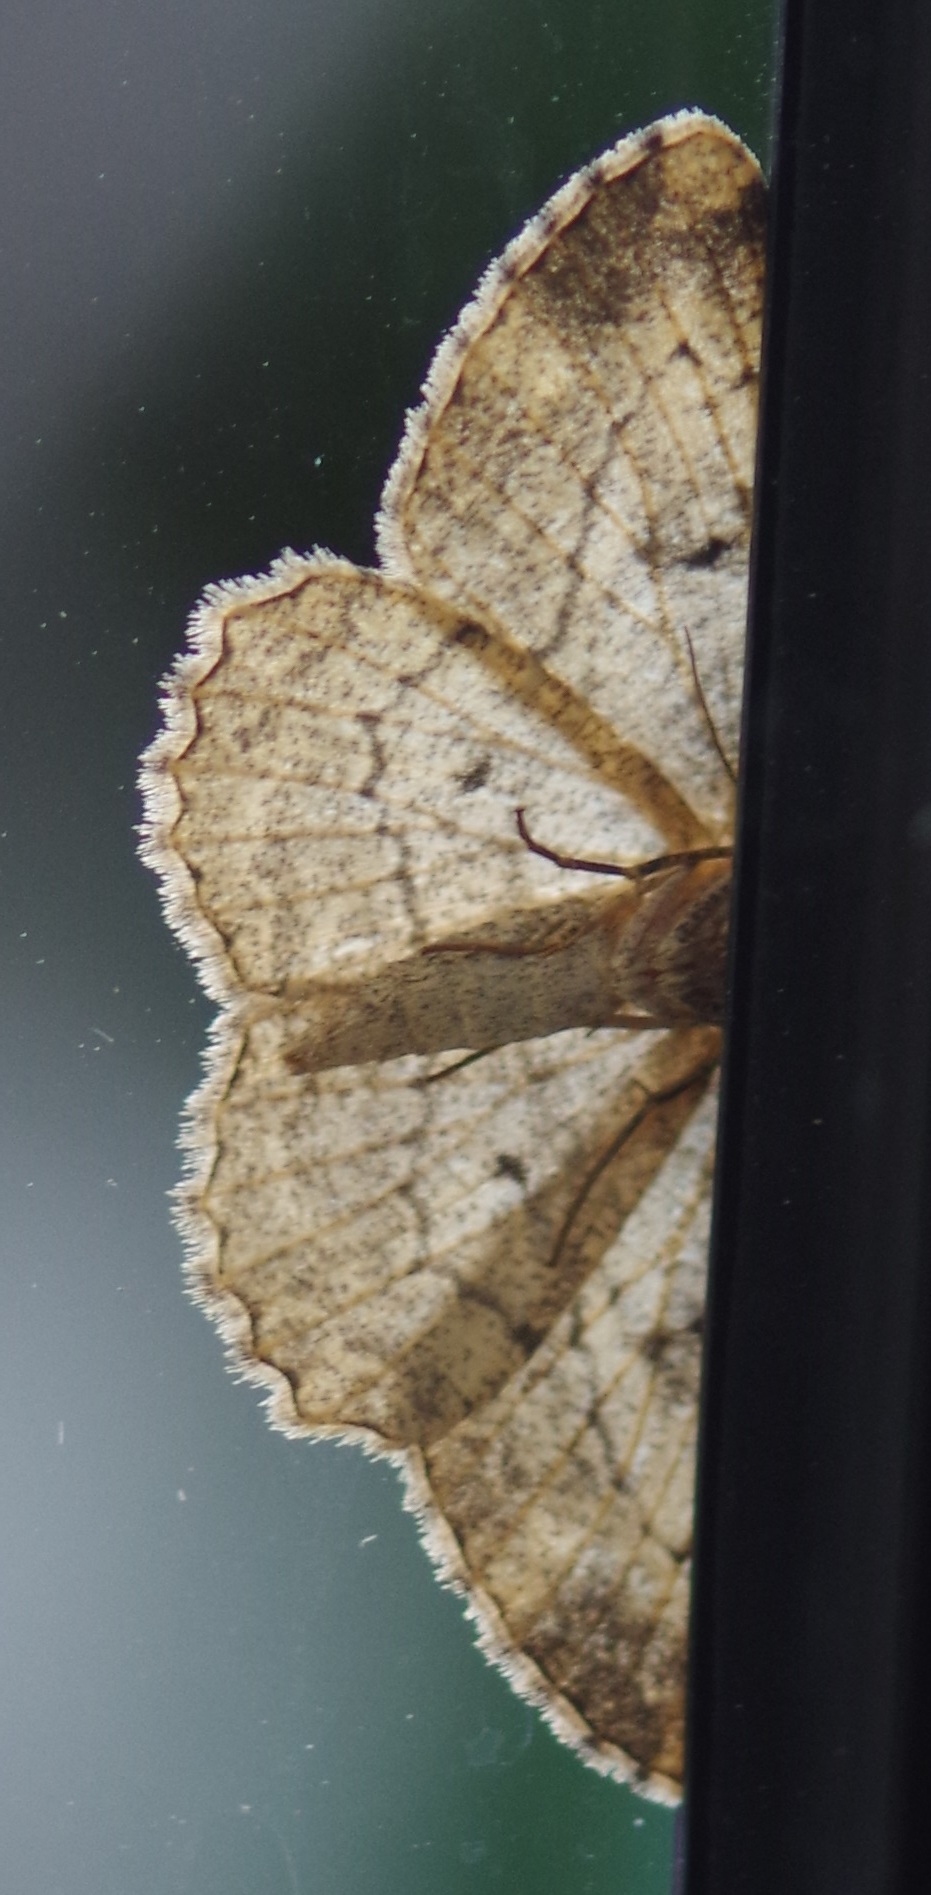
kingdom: Animalia
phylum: Arthropoda
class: Insecta
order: Lepidoptera
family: Geometridae
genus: Peribatodes
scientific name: Peribatodes rhomboidaria
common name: Willow beauty
